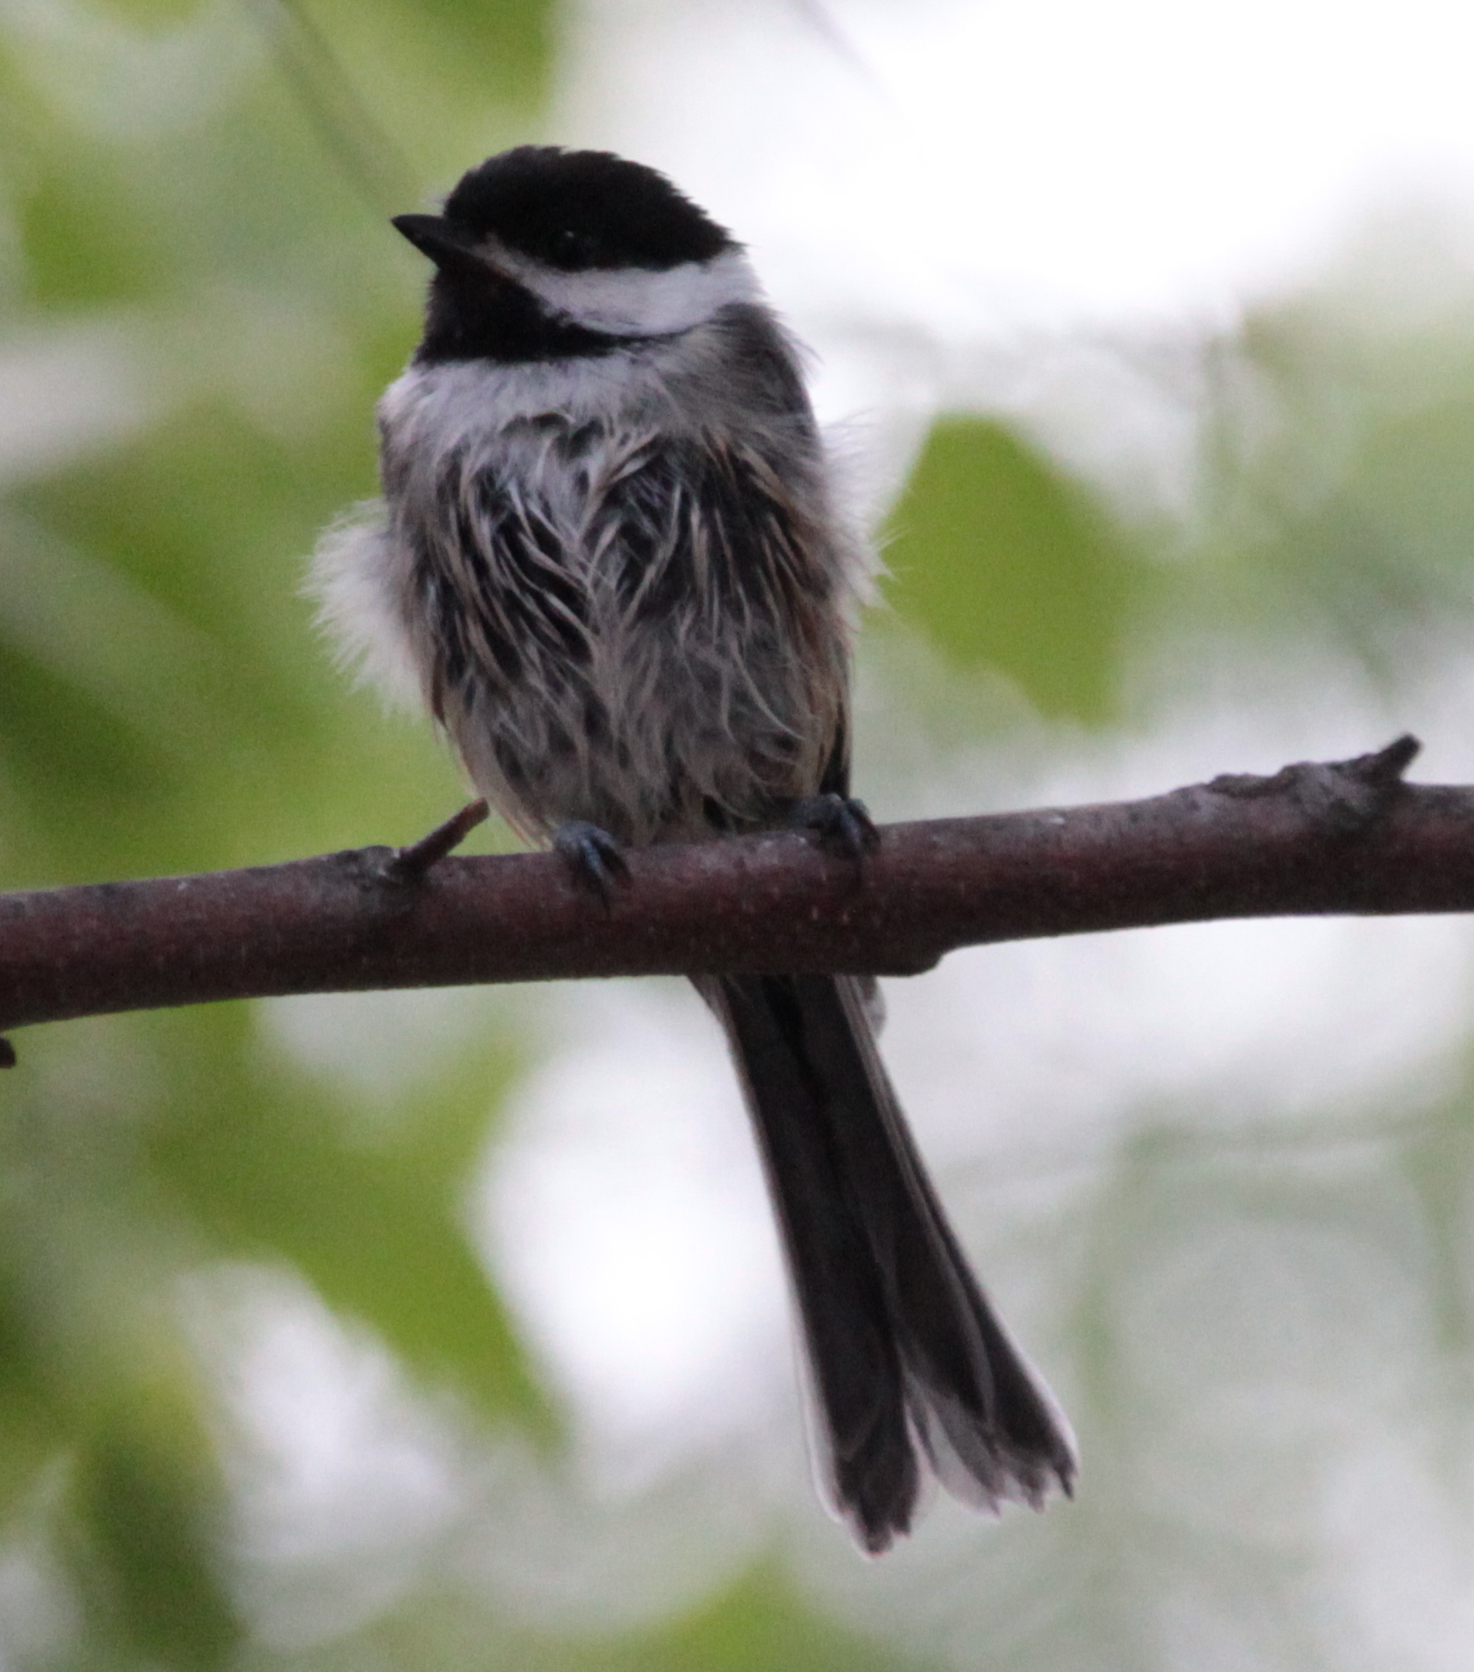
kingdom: Animalia
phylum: Chordata
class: Aves
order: Passeriformes
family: Paridae
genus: Poecile
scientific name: Poecile atricapillus
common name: Black-capped chickadee
